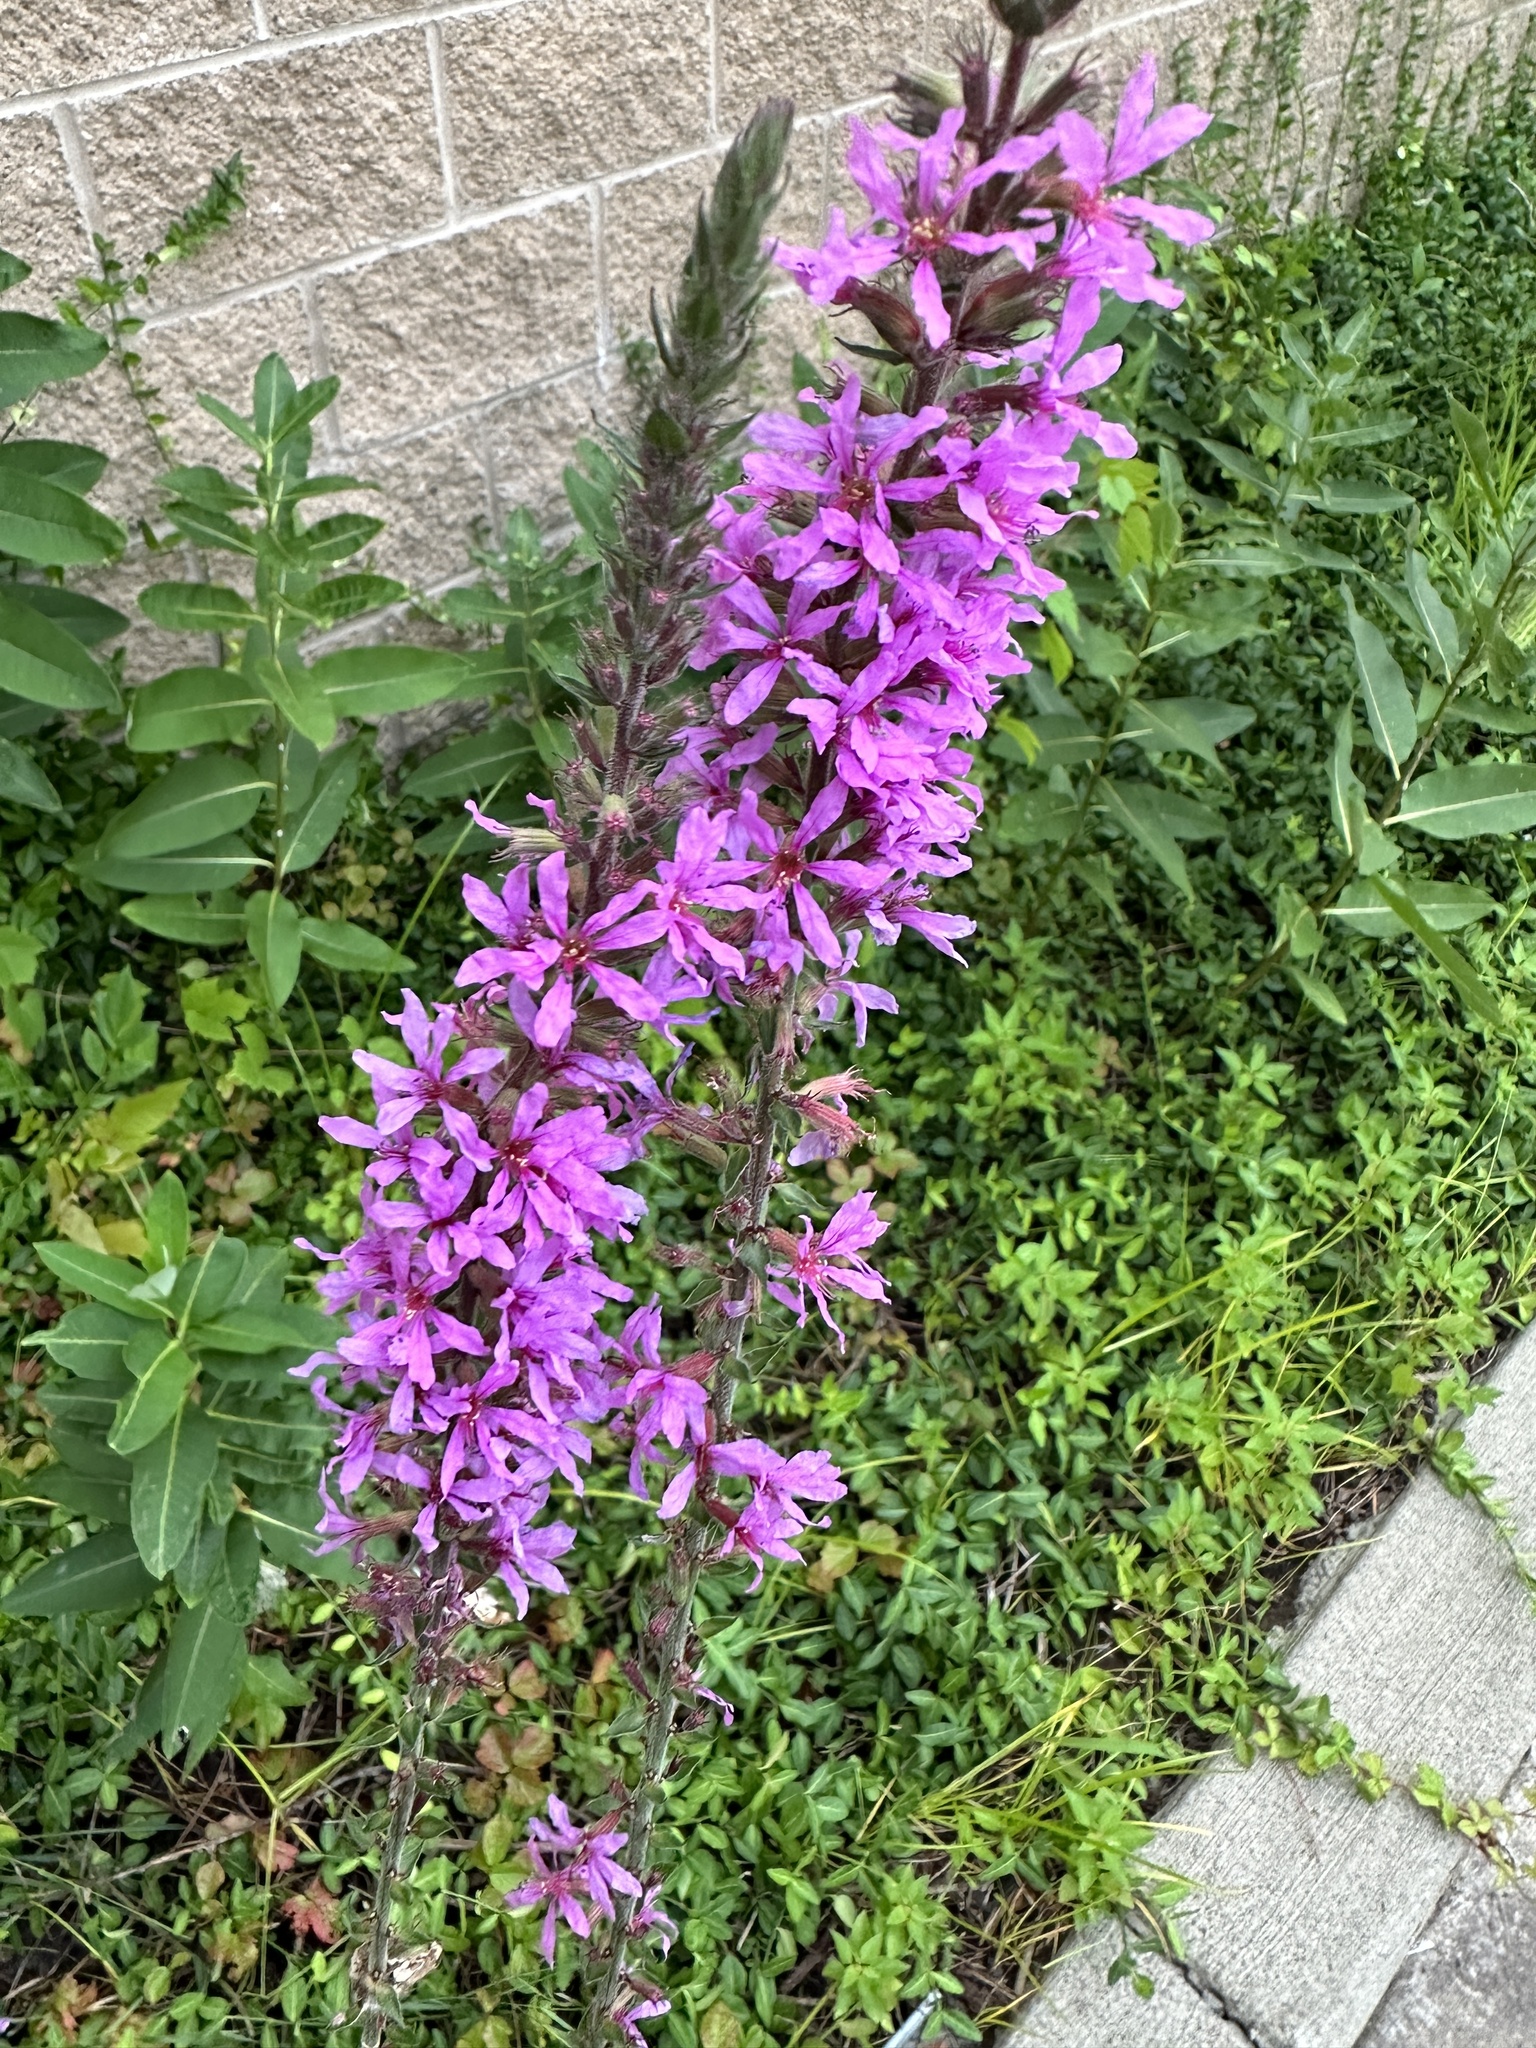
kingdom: Plantae
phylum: Tracheophyta
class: Magnoliopsida
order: Myrtales
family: Lythraceae
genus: Lythrum
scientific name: Lythrum salicaria
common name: Purple loosestrife
